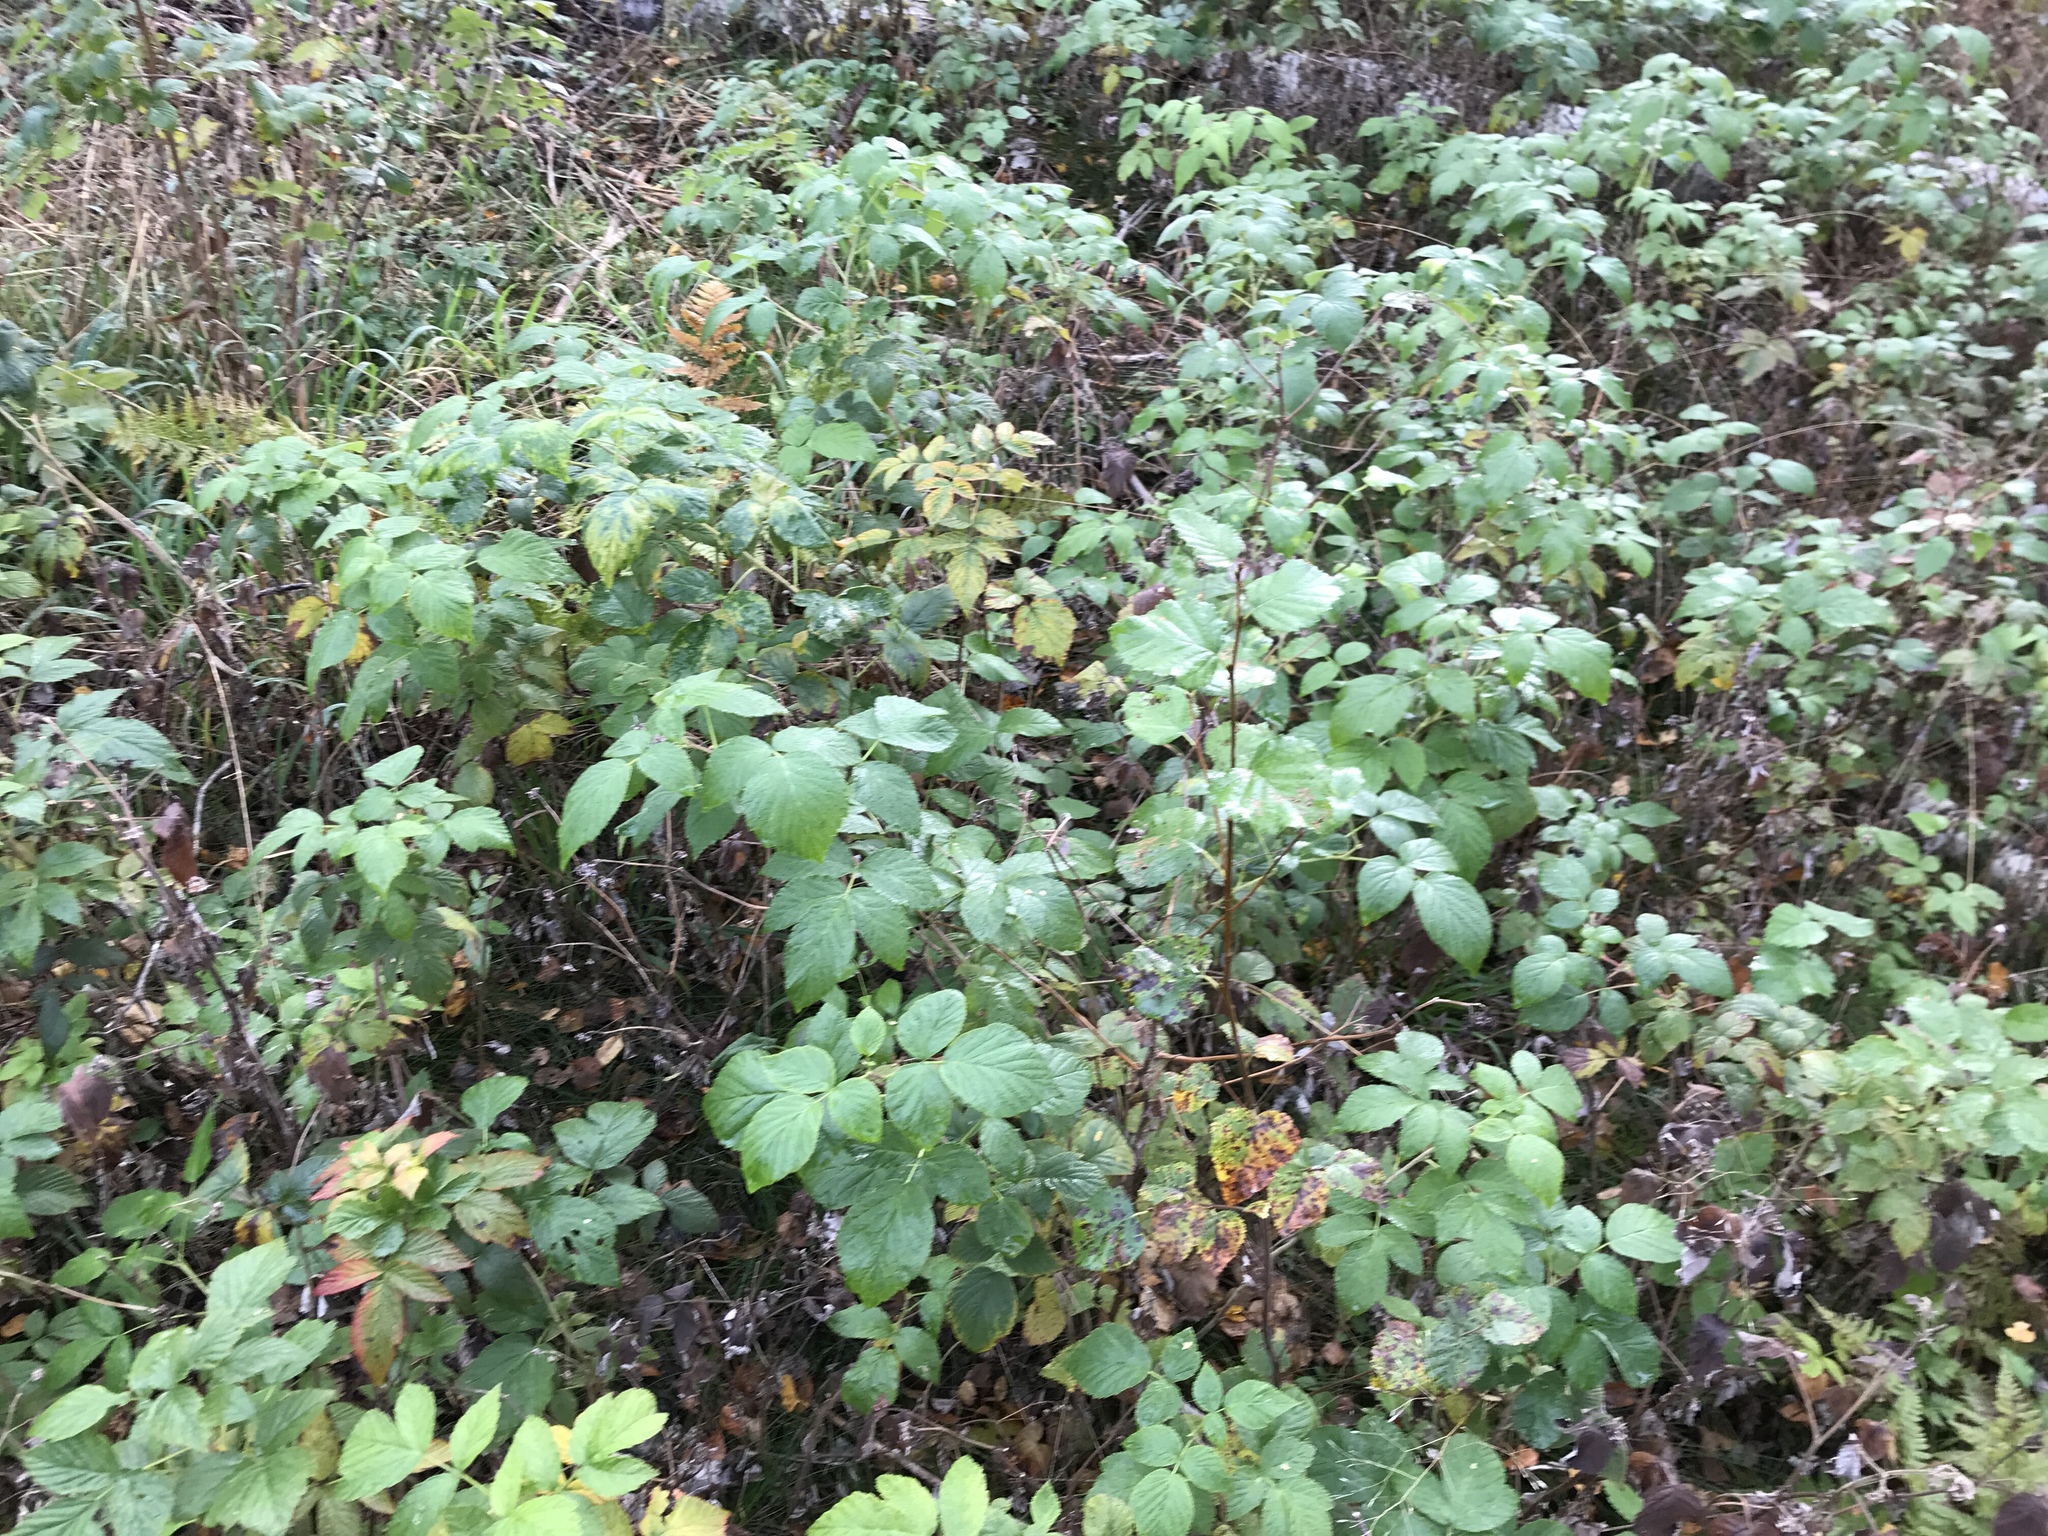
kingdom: Plantae
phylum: Tracheophyta
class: Magnoliopsida
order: Rosales
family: Rosaceae
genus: Rubus
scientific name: Rubus idaeus
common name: Raspberry
